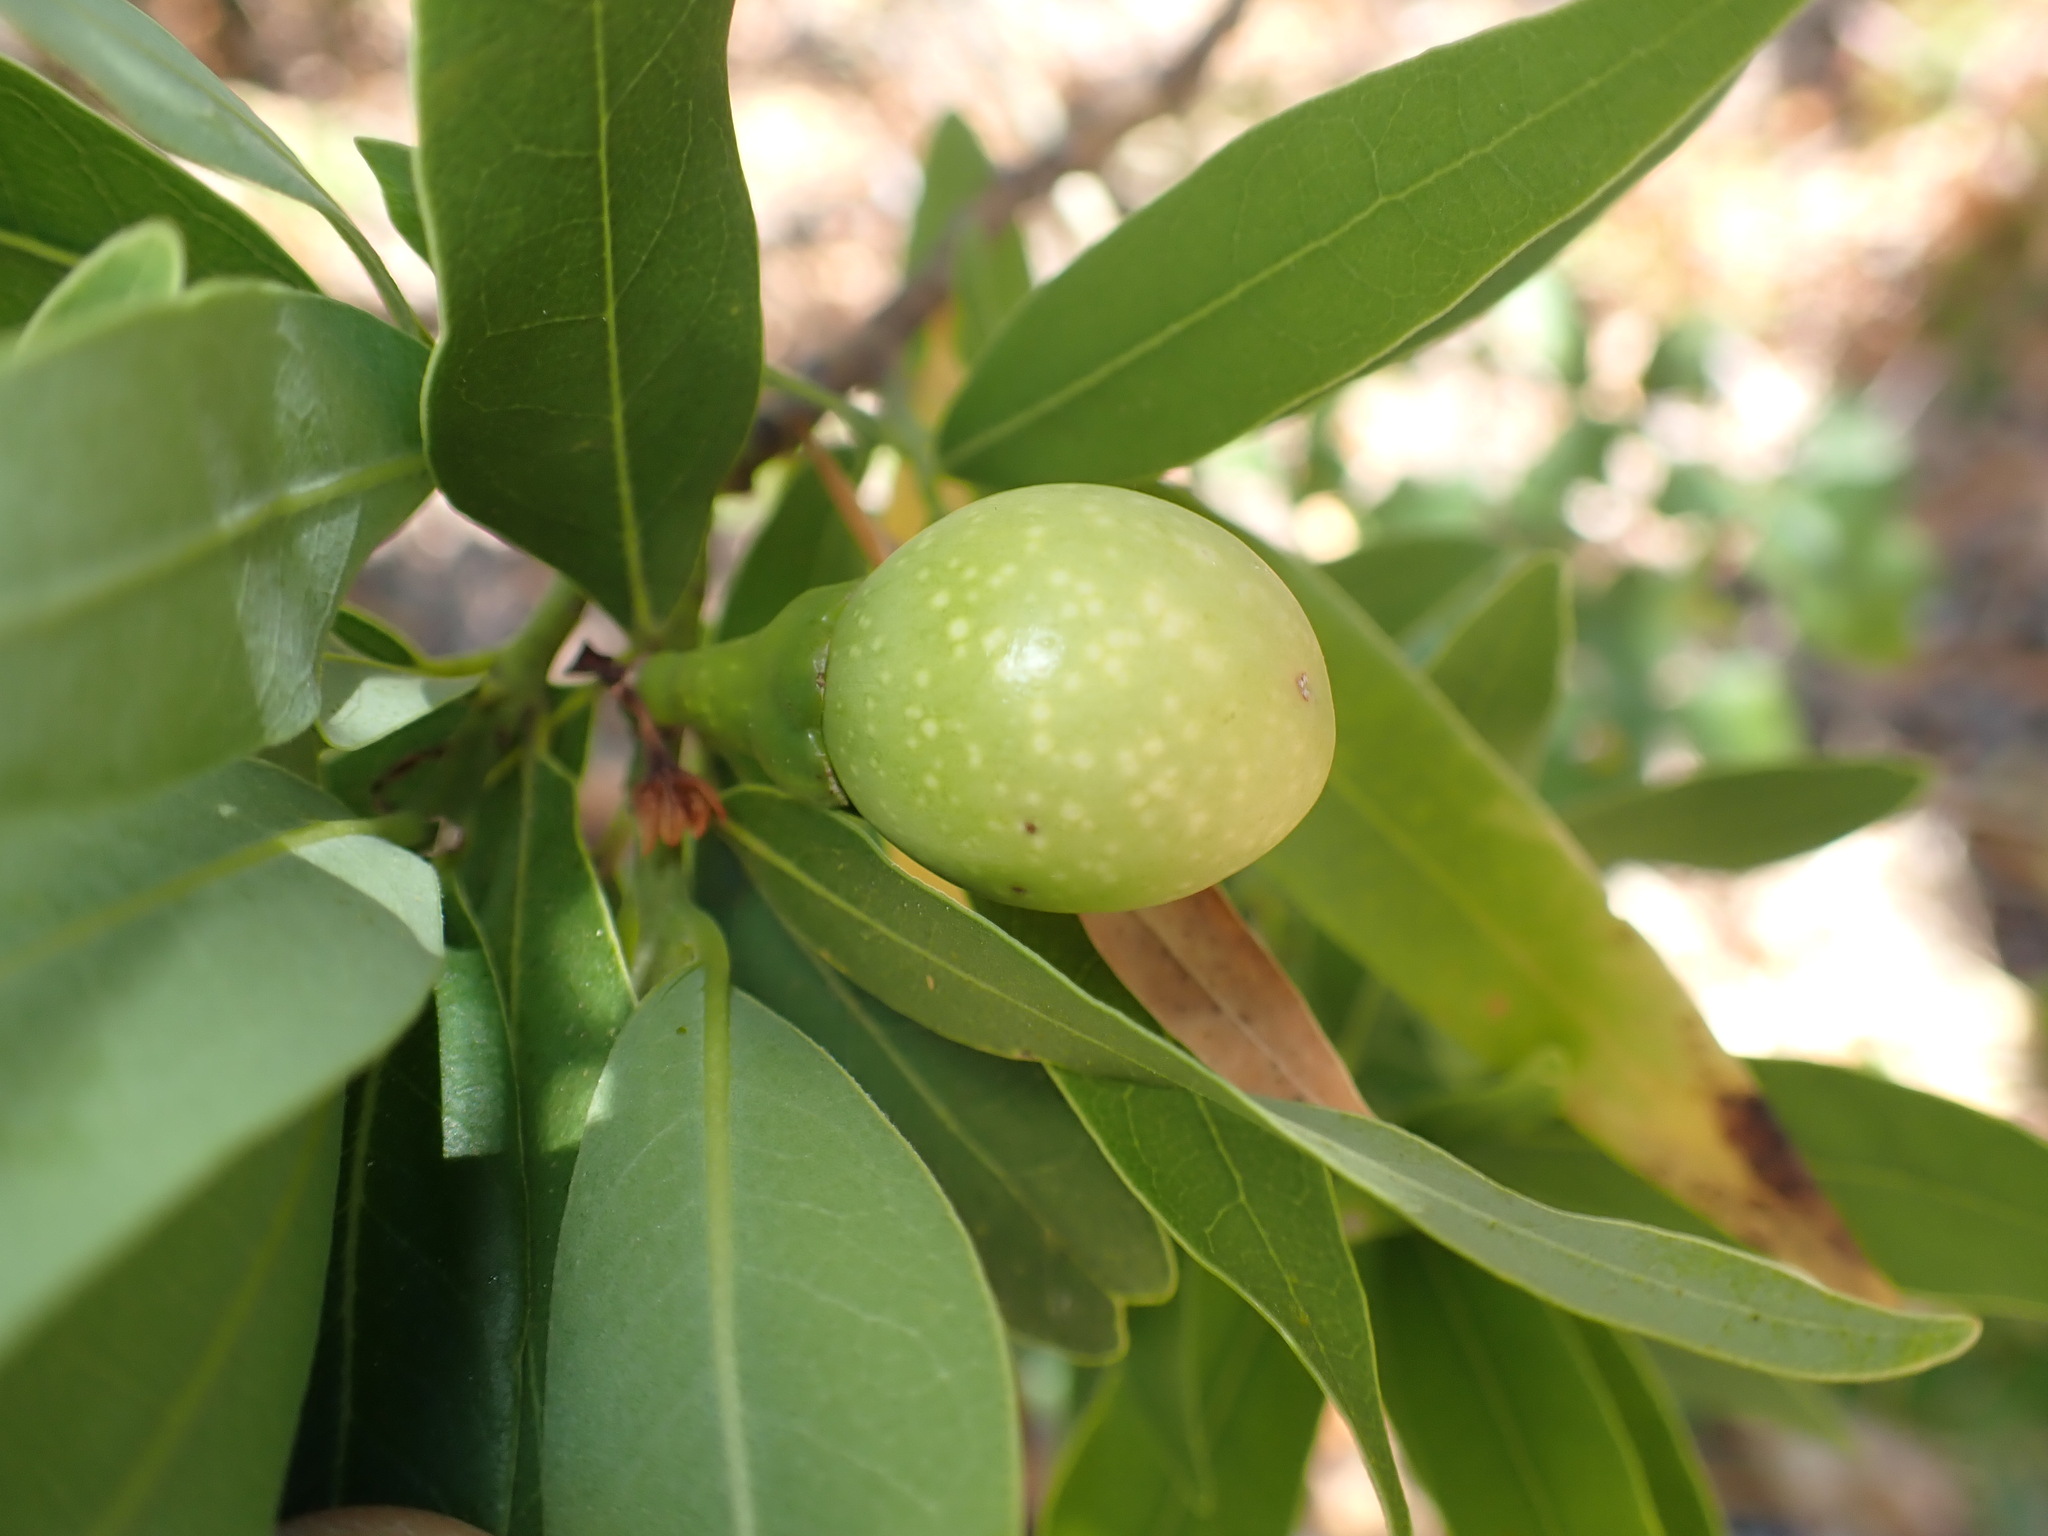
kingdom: Plantae
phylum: Tracheophyta
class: Magnoliopsida
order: Laurales
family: Lauraceae
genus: Umbellularia
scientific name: Umbellularia californica
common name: California bay
